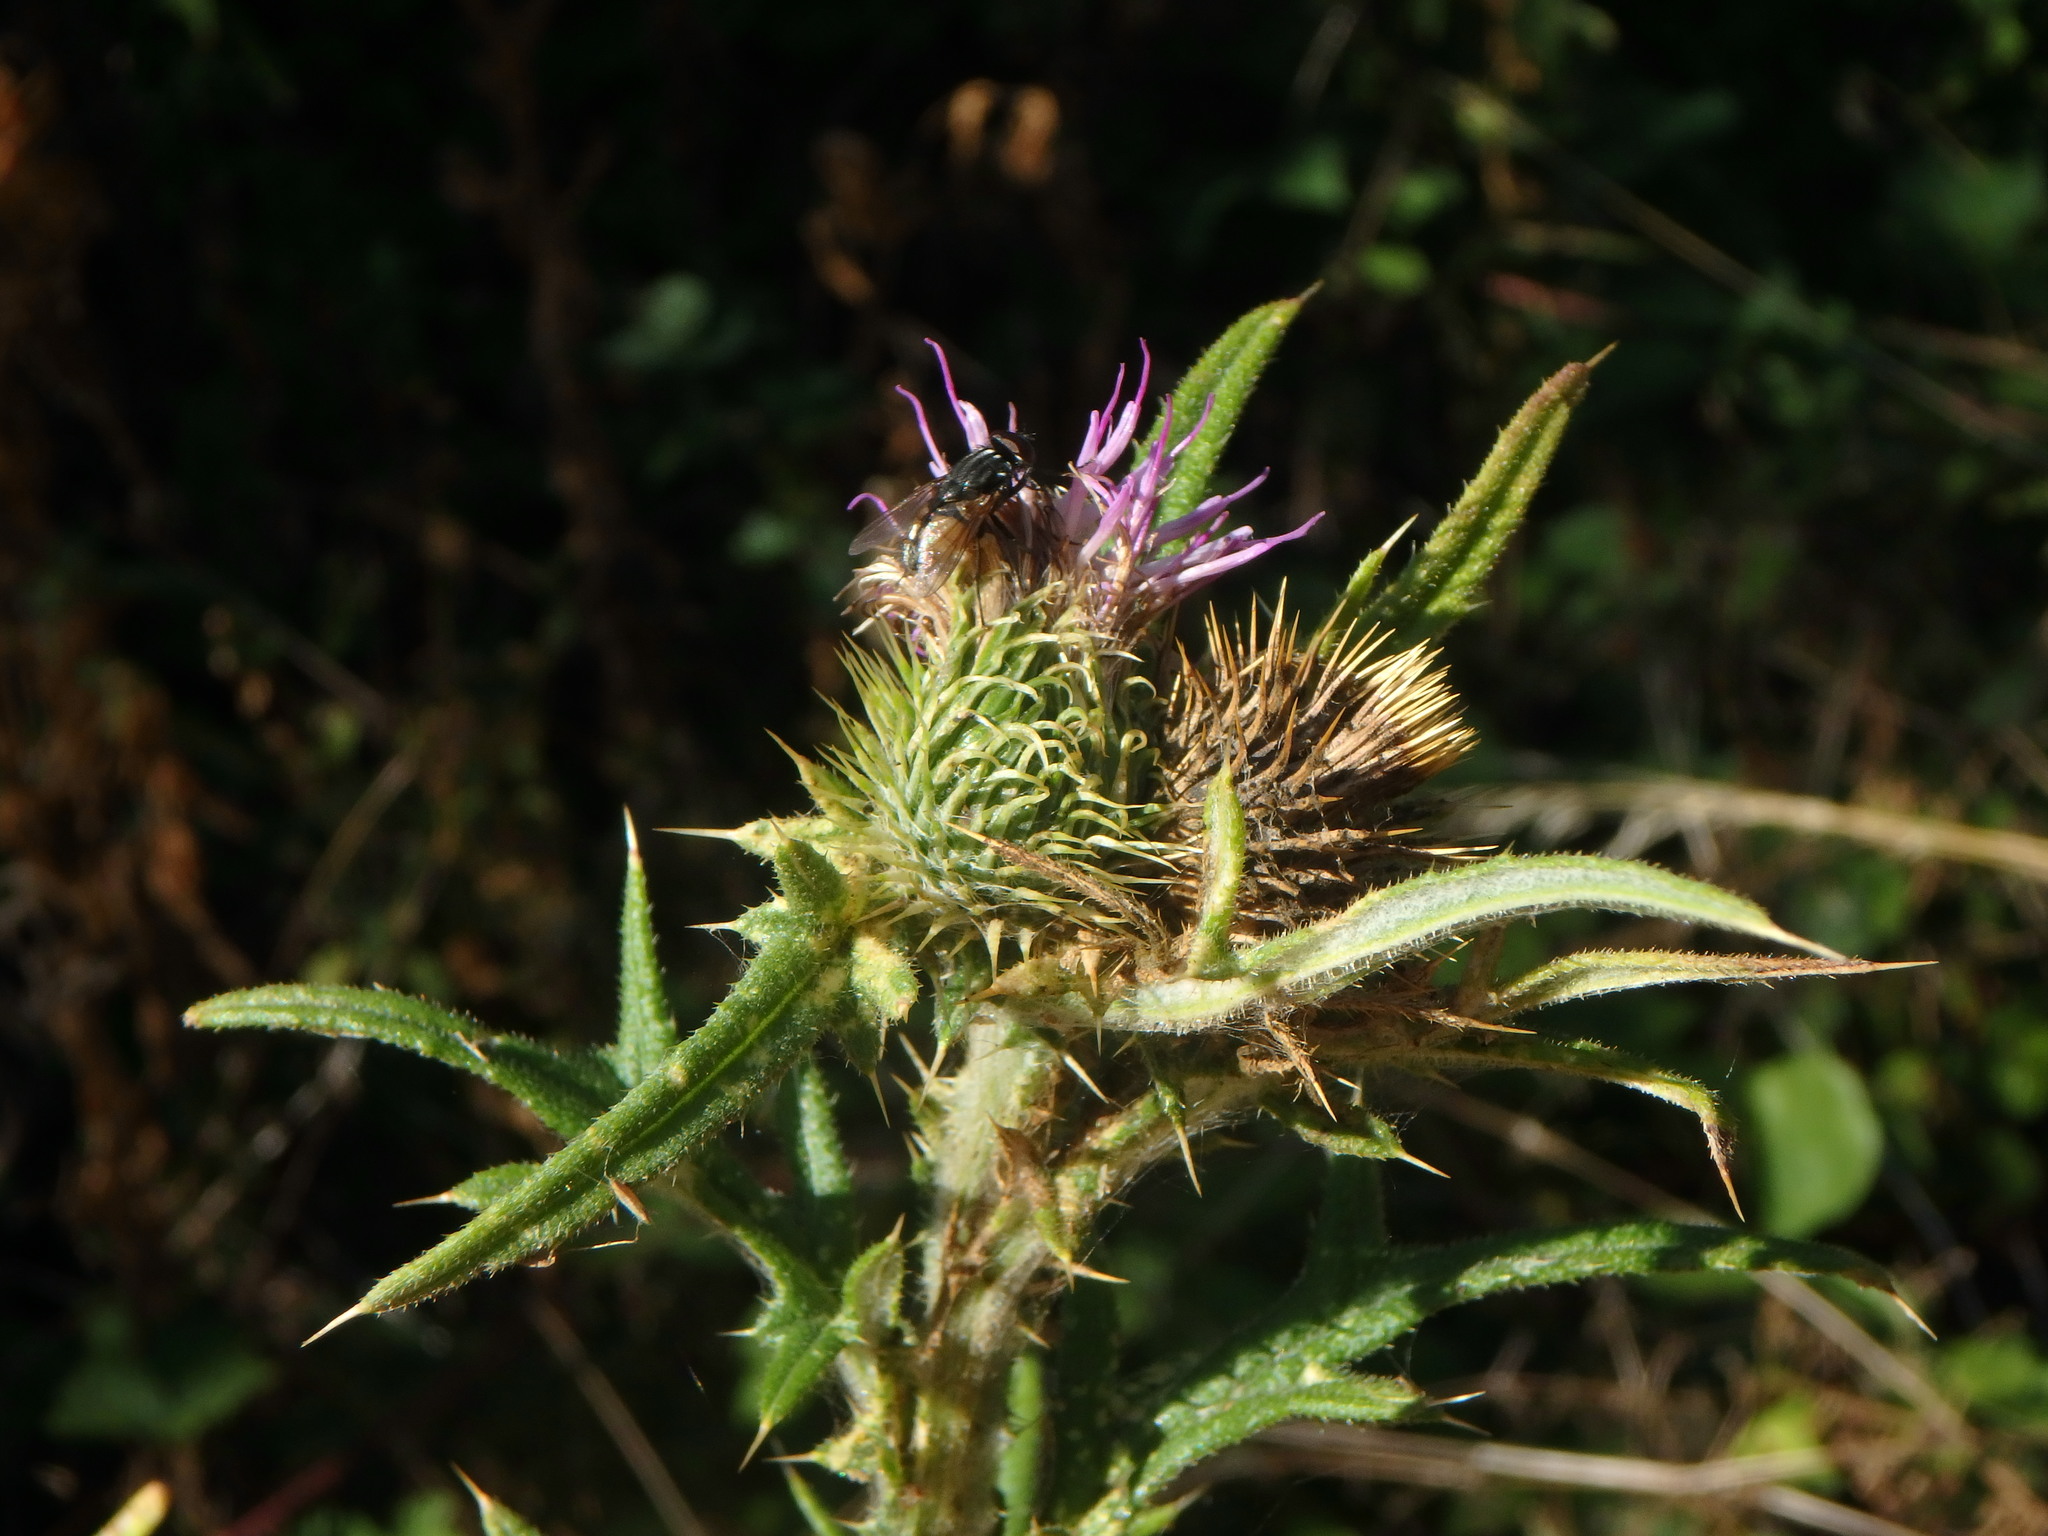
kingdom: Plantae
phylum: Tracheophyta
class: Magnoliopsida
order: Asterales
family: Asteraceae
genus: Cirsium
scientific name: Cirsium vulgare
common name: Bull thistle
